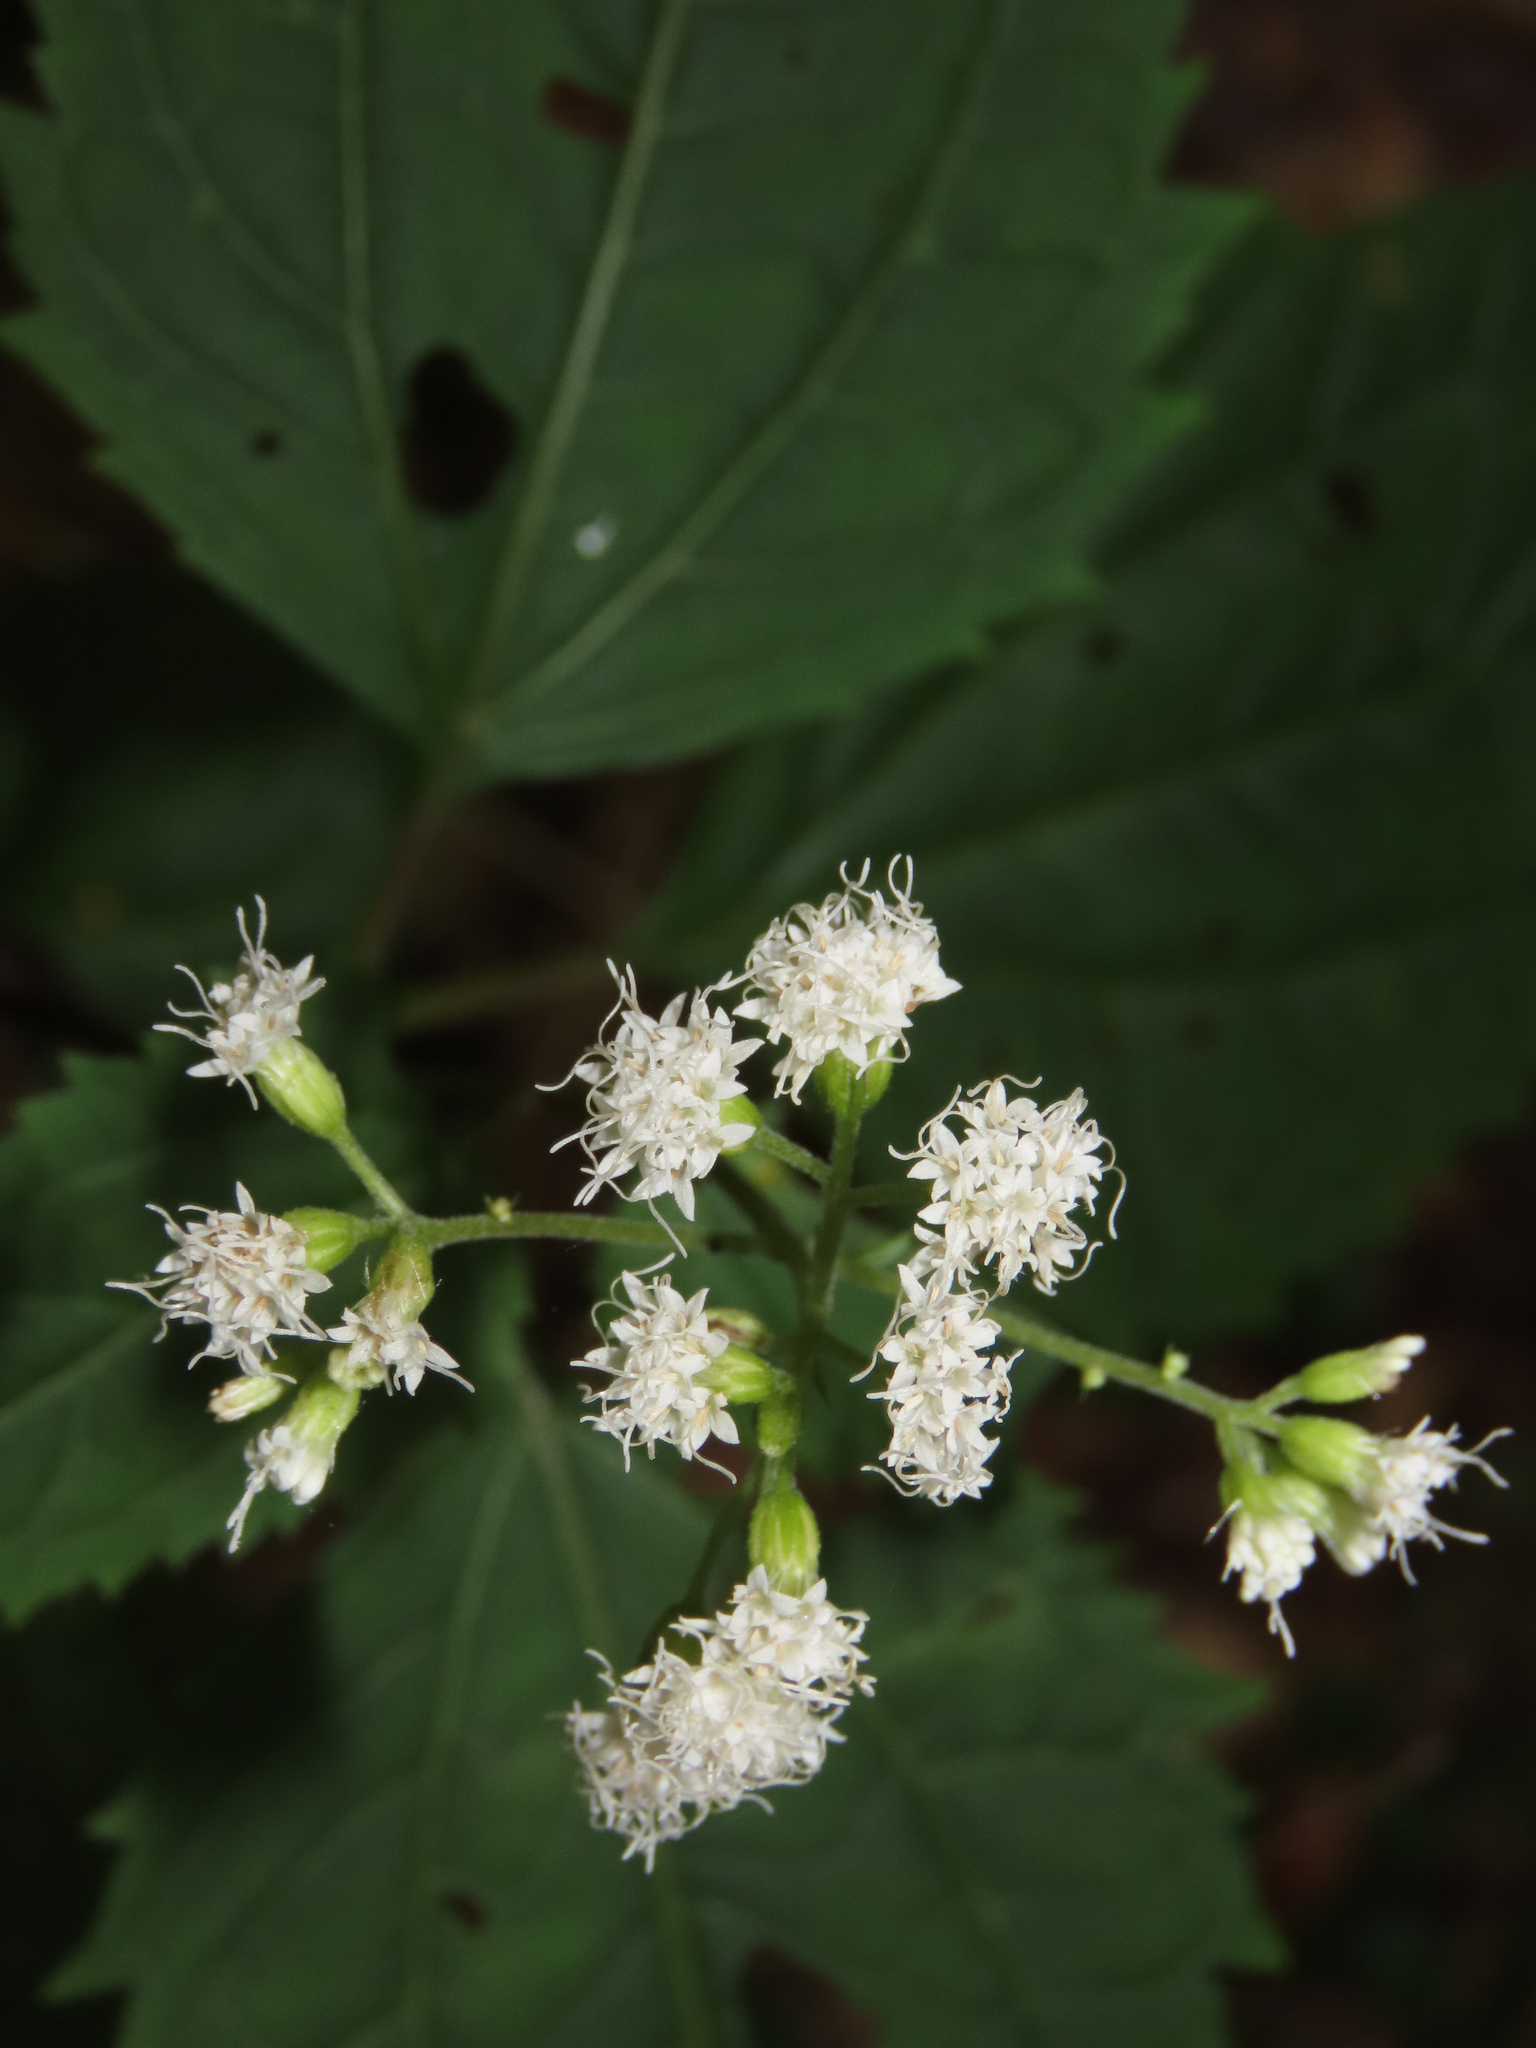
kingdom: Plantae
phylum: Tracheophyta
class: Magnoliopsida
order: Asterales
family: Asteraceae
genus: Ageratina
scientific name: Ageratina altissima
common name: White snakeroot
